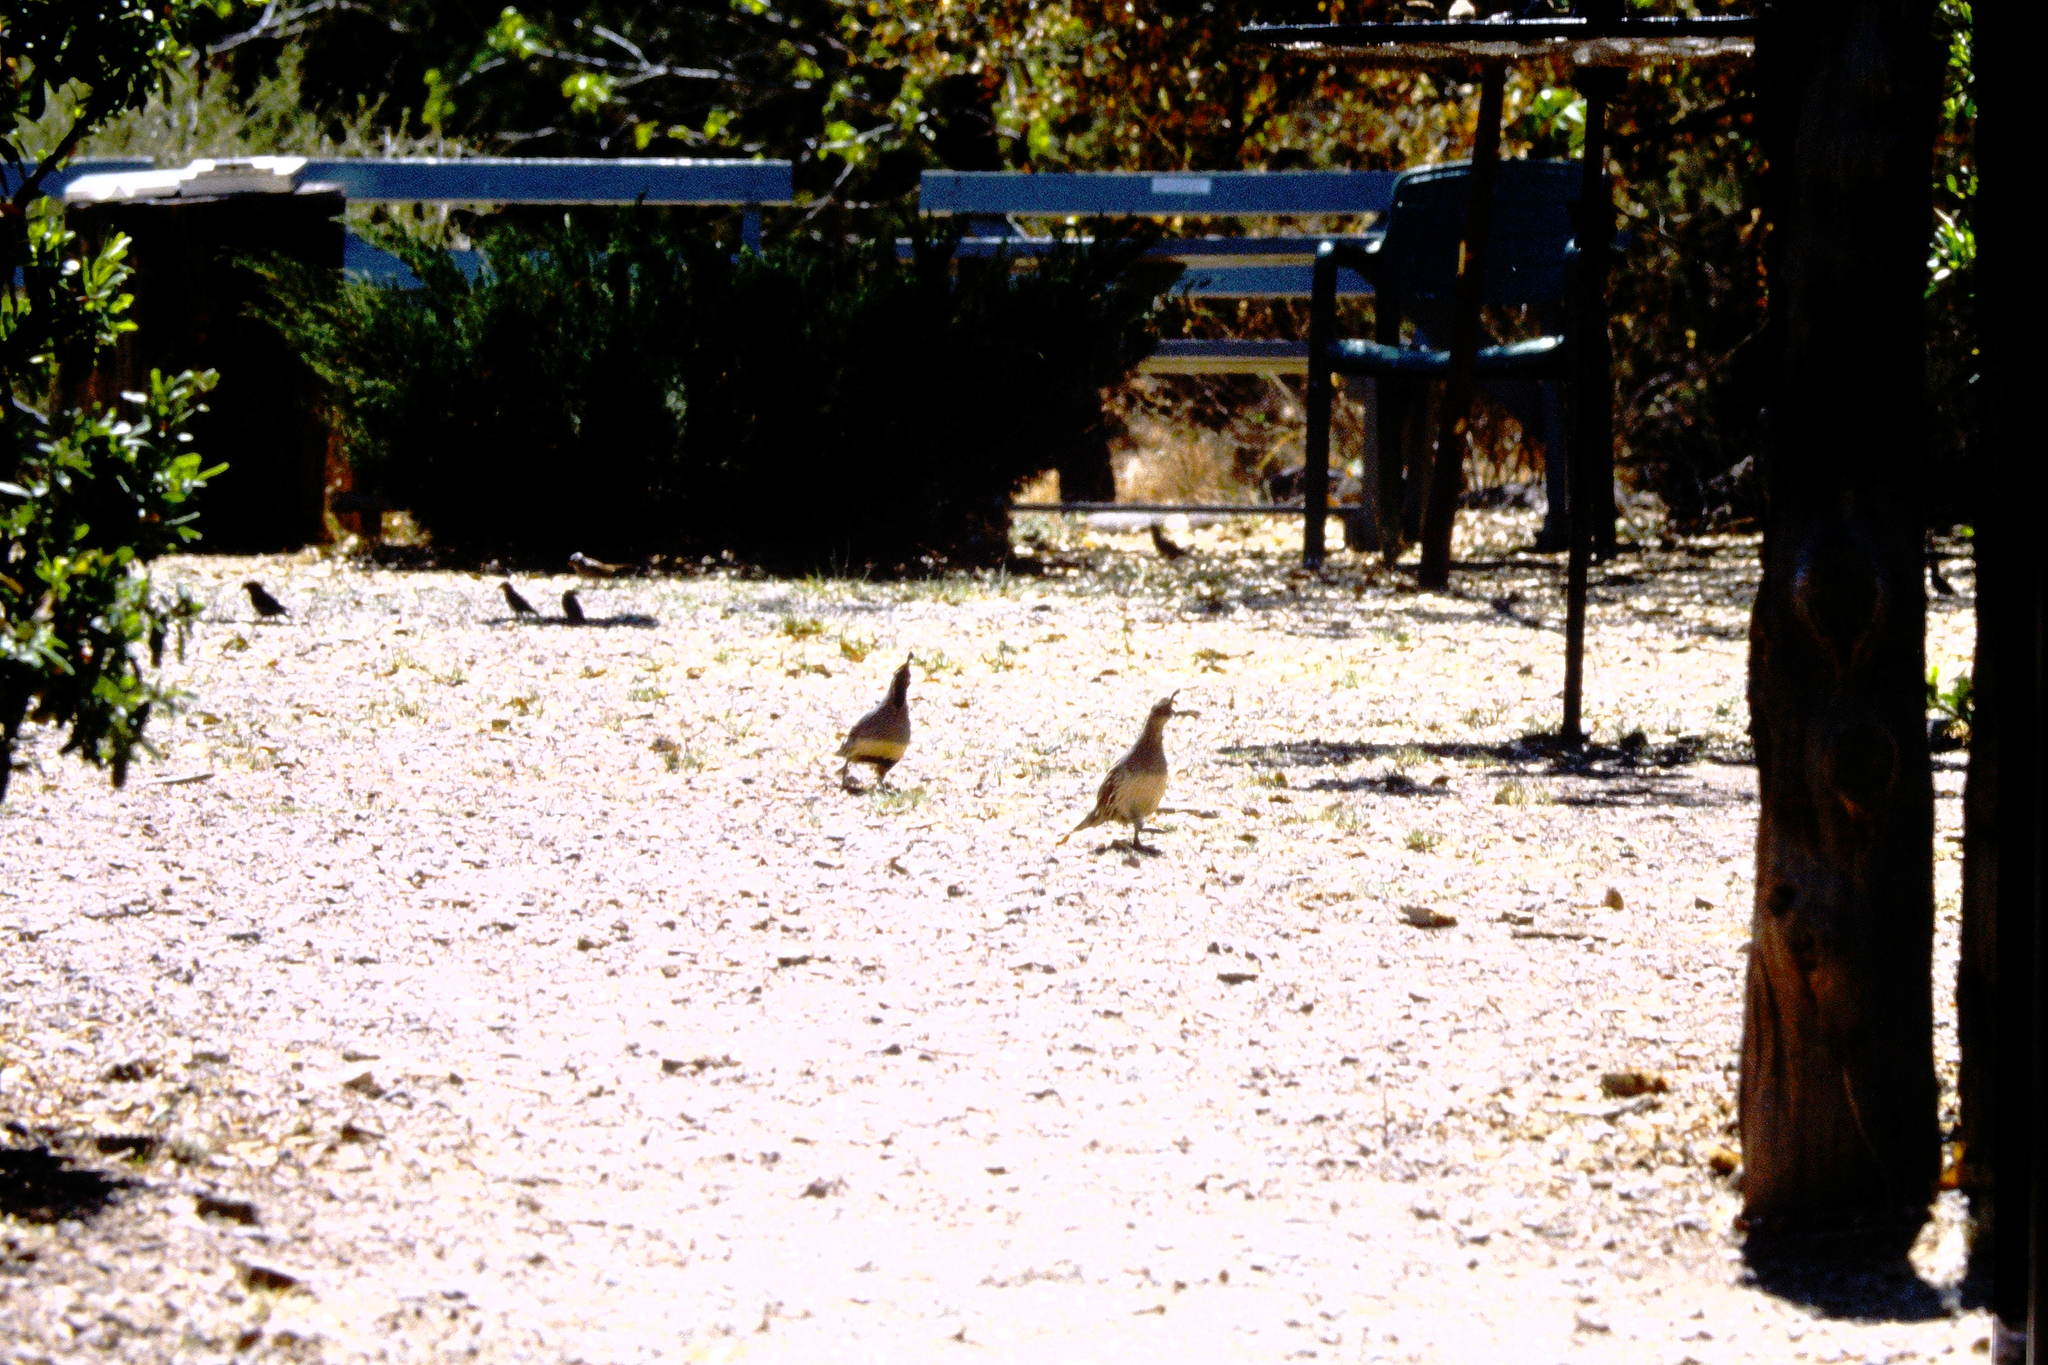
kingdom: Animalia
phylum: Chordata
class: Aves
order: Galliformes
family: Odontophoridae
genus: Callipepla
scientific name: Callipepla gambelii
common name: Gambel's quail
